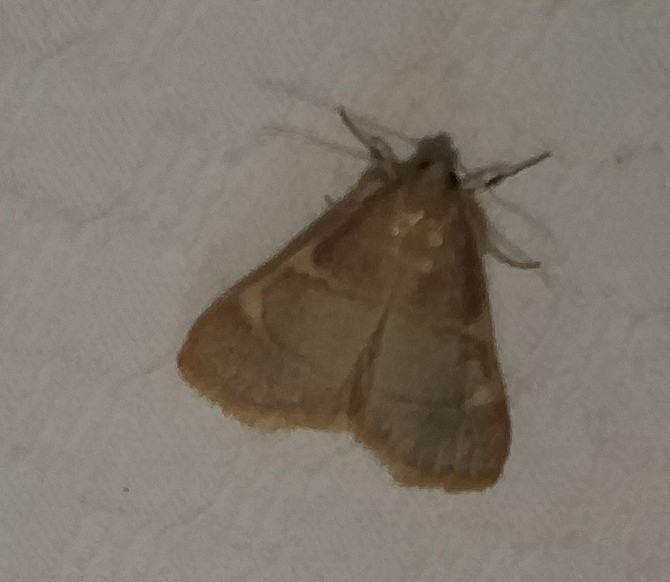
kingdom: Animalia
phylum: Arthropoda
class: Insecta
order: Lepidoptera
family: Pyralidae
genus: Hypsopygia
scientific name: Hypsopygia olinalis
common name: Yellow-fringed dolichomia moth
